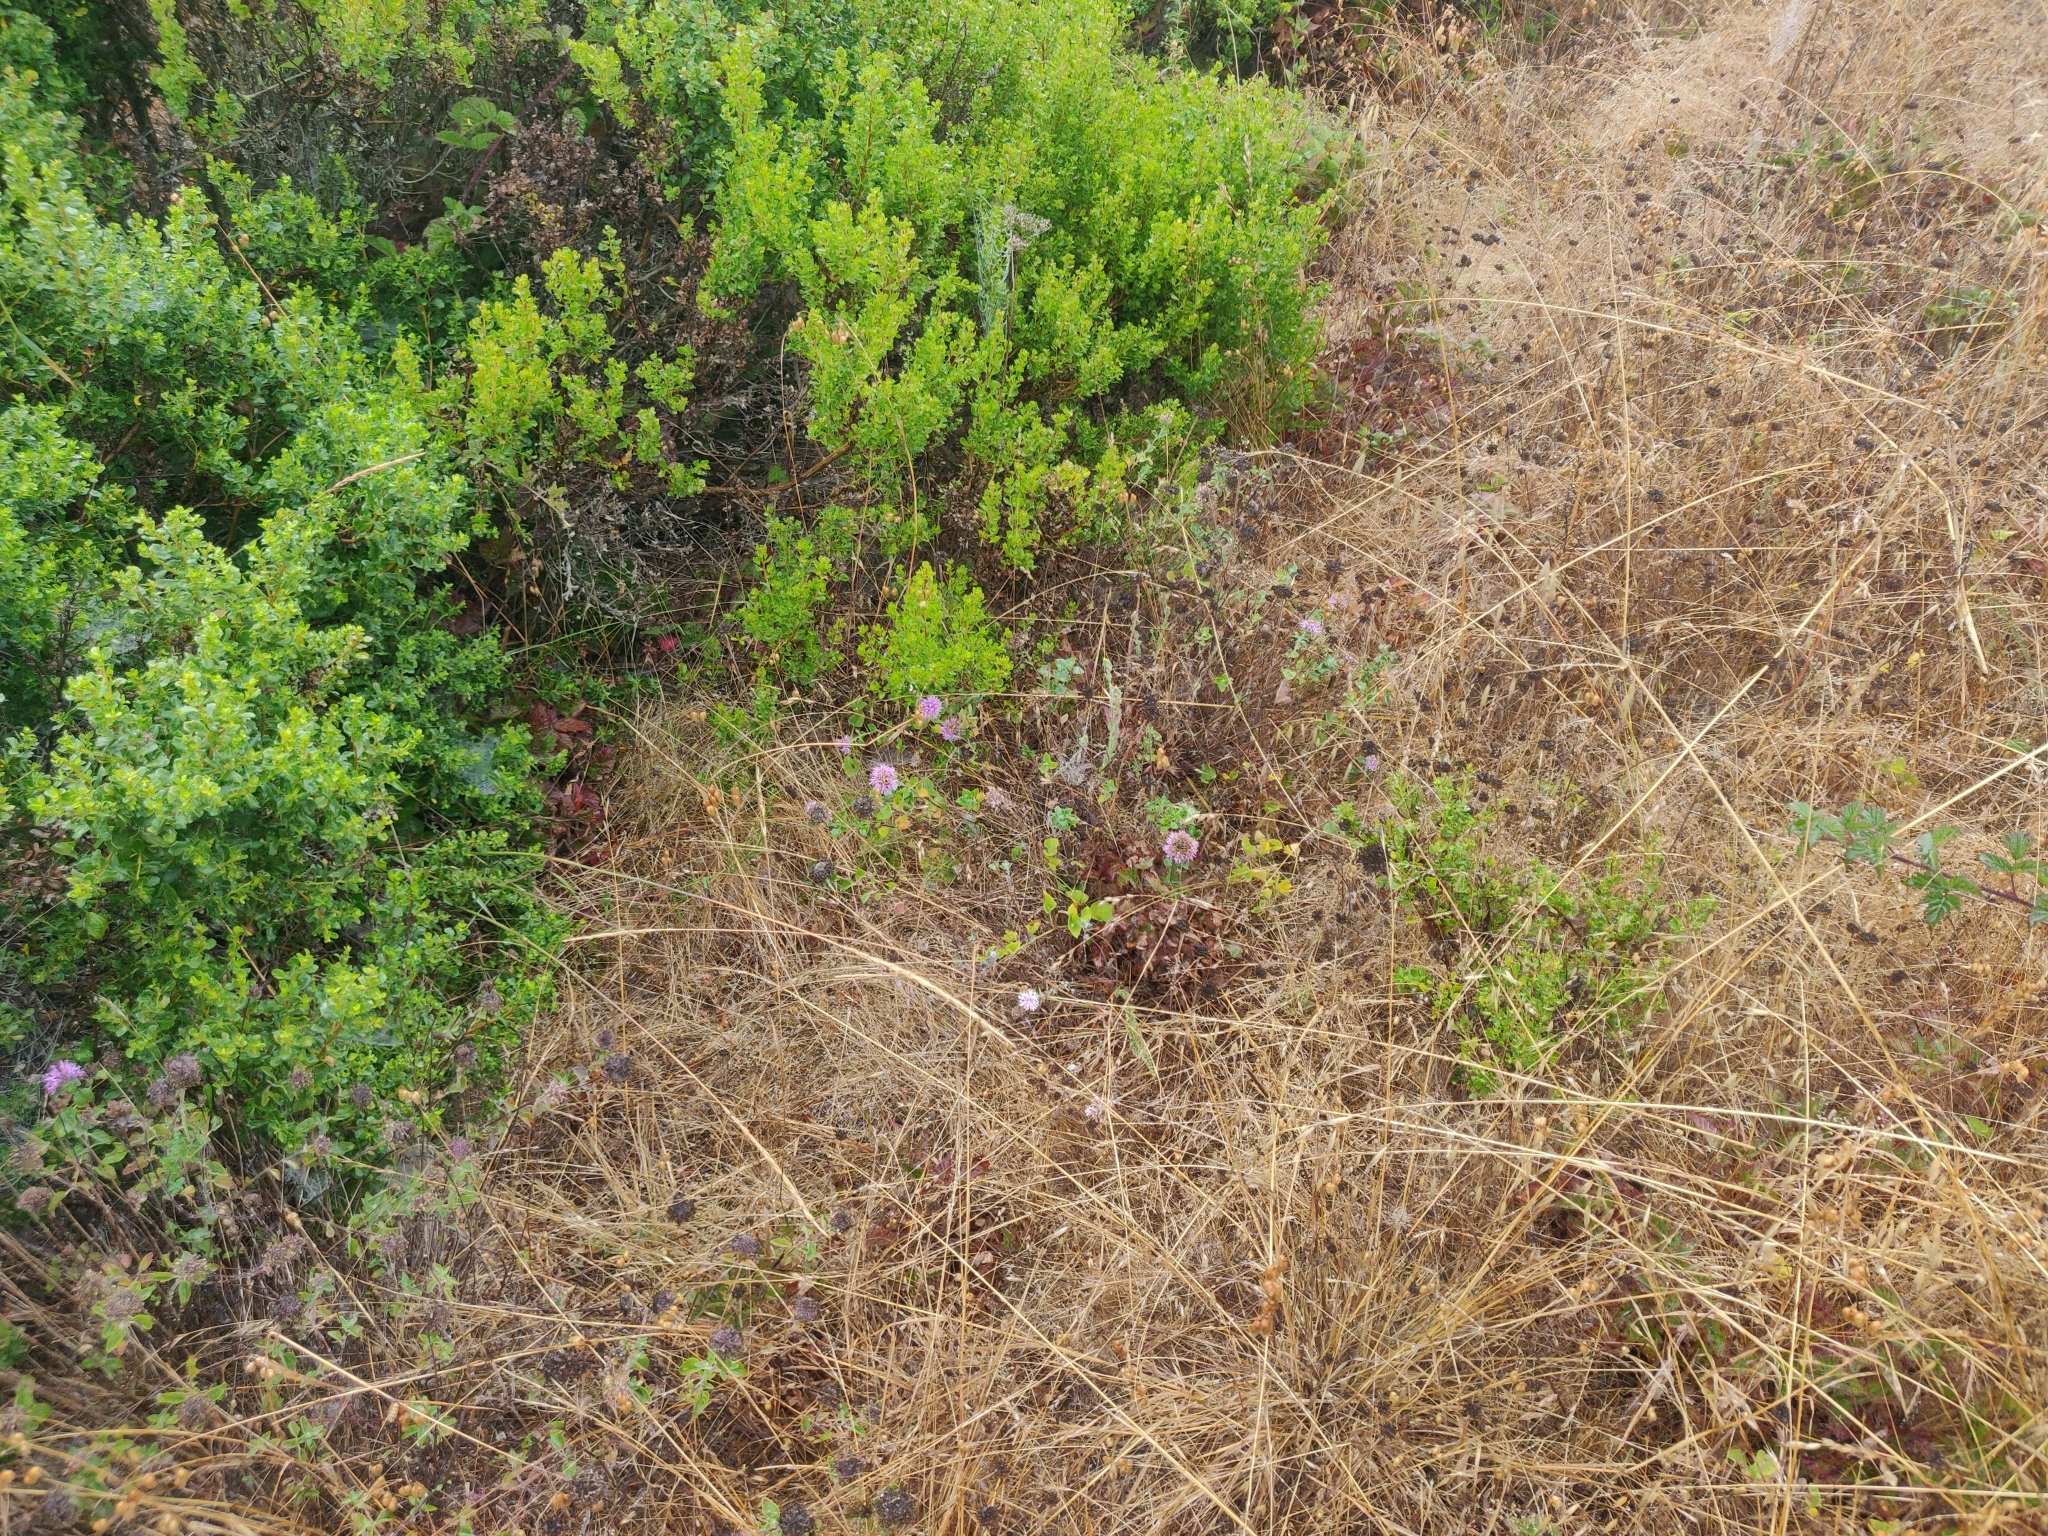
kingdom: Plantae
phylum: Tracheophyta
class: Magnoliopsida
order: Lamiales
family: Lamiaceae
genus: Monardella
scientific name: Monardella odoratissima
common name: Pacific monardella
